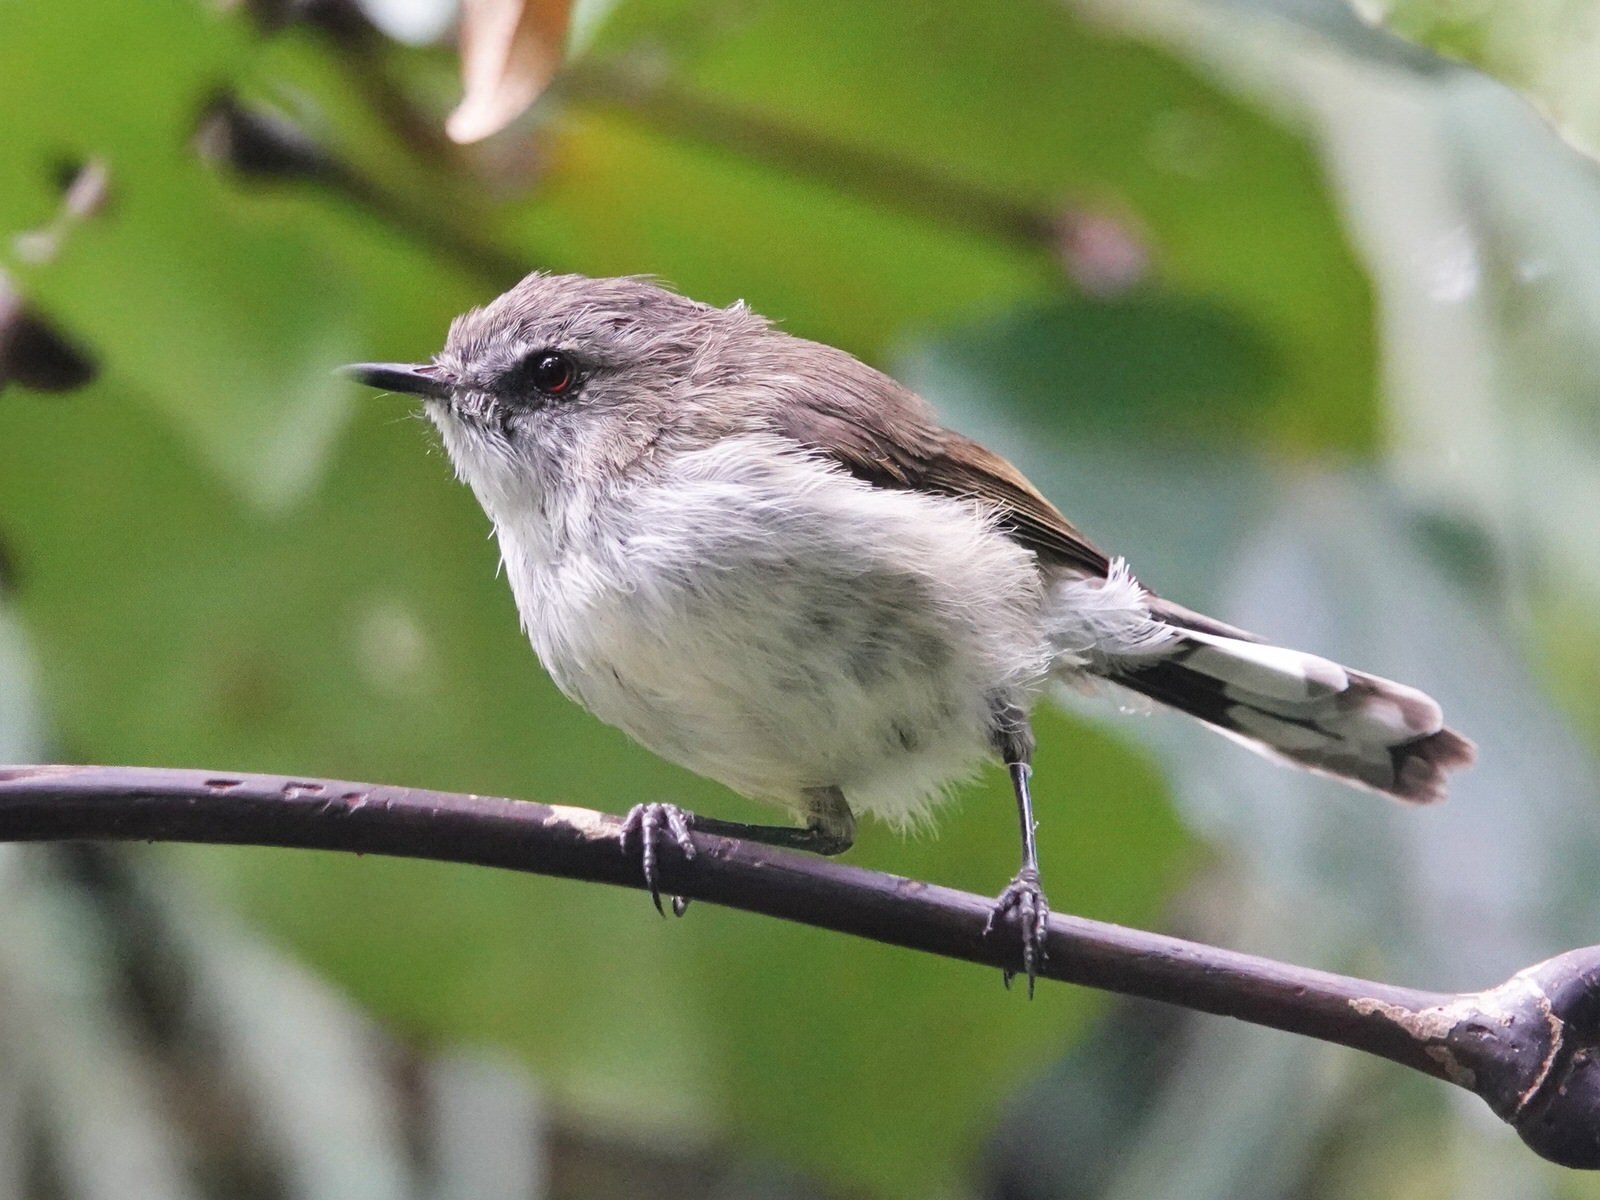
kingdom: Animalia
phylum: Chordata
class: Aves
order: Passeriformes
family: Acanthizidae
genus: Gerygone
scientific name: Gerygone igata
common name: Grey gerygone
